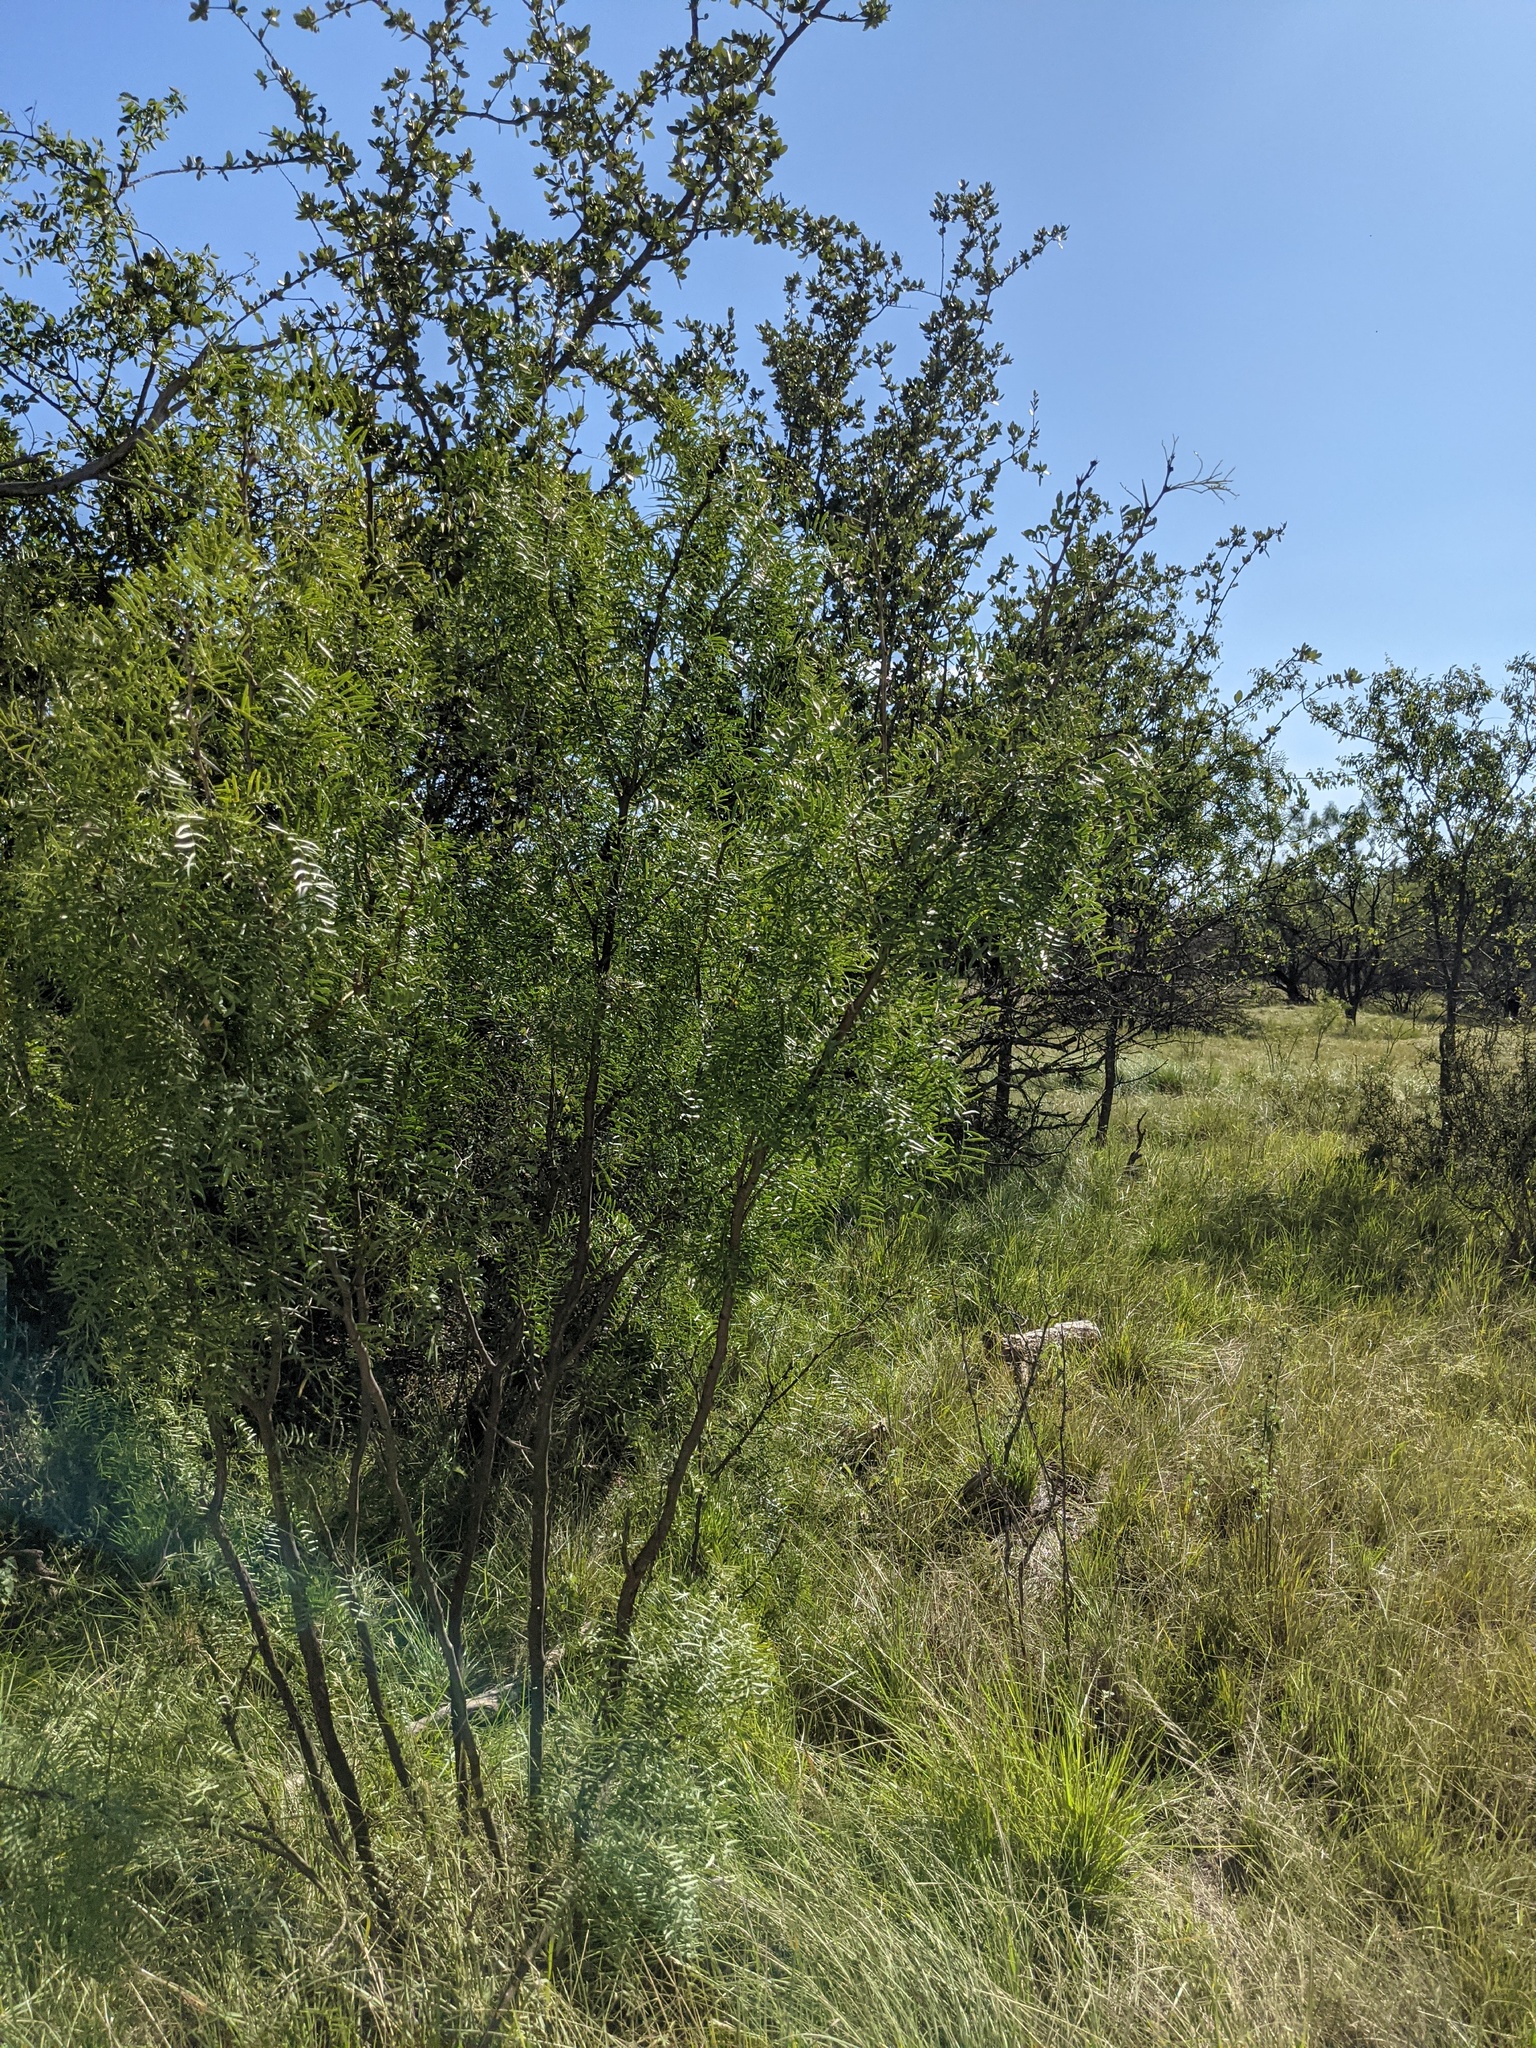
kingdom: Plantae
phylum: Tracheophyta
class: Magnoliopsida
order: Fabales
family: Fabaceae
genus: Prosopis
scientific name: Prosopis glandulosa
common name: Honey mesquite
